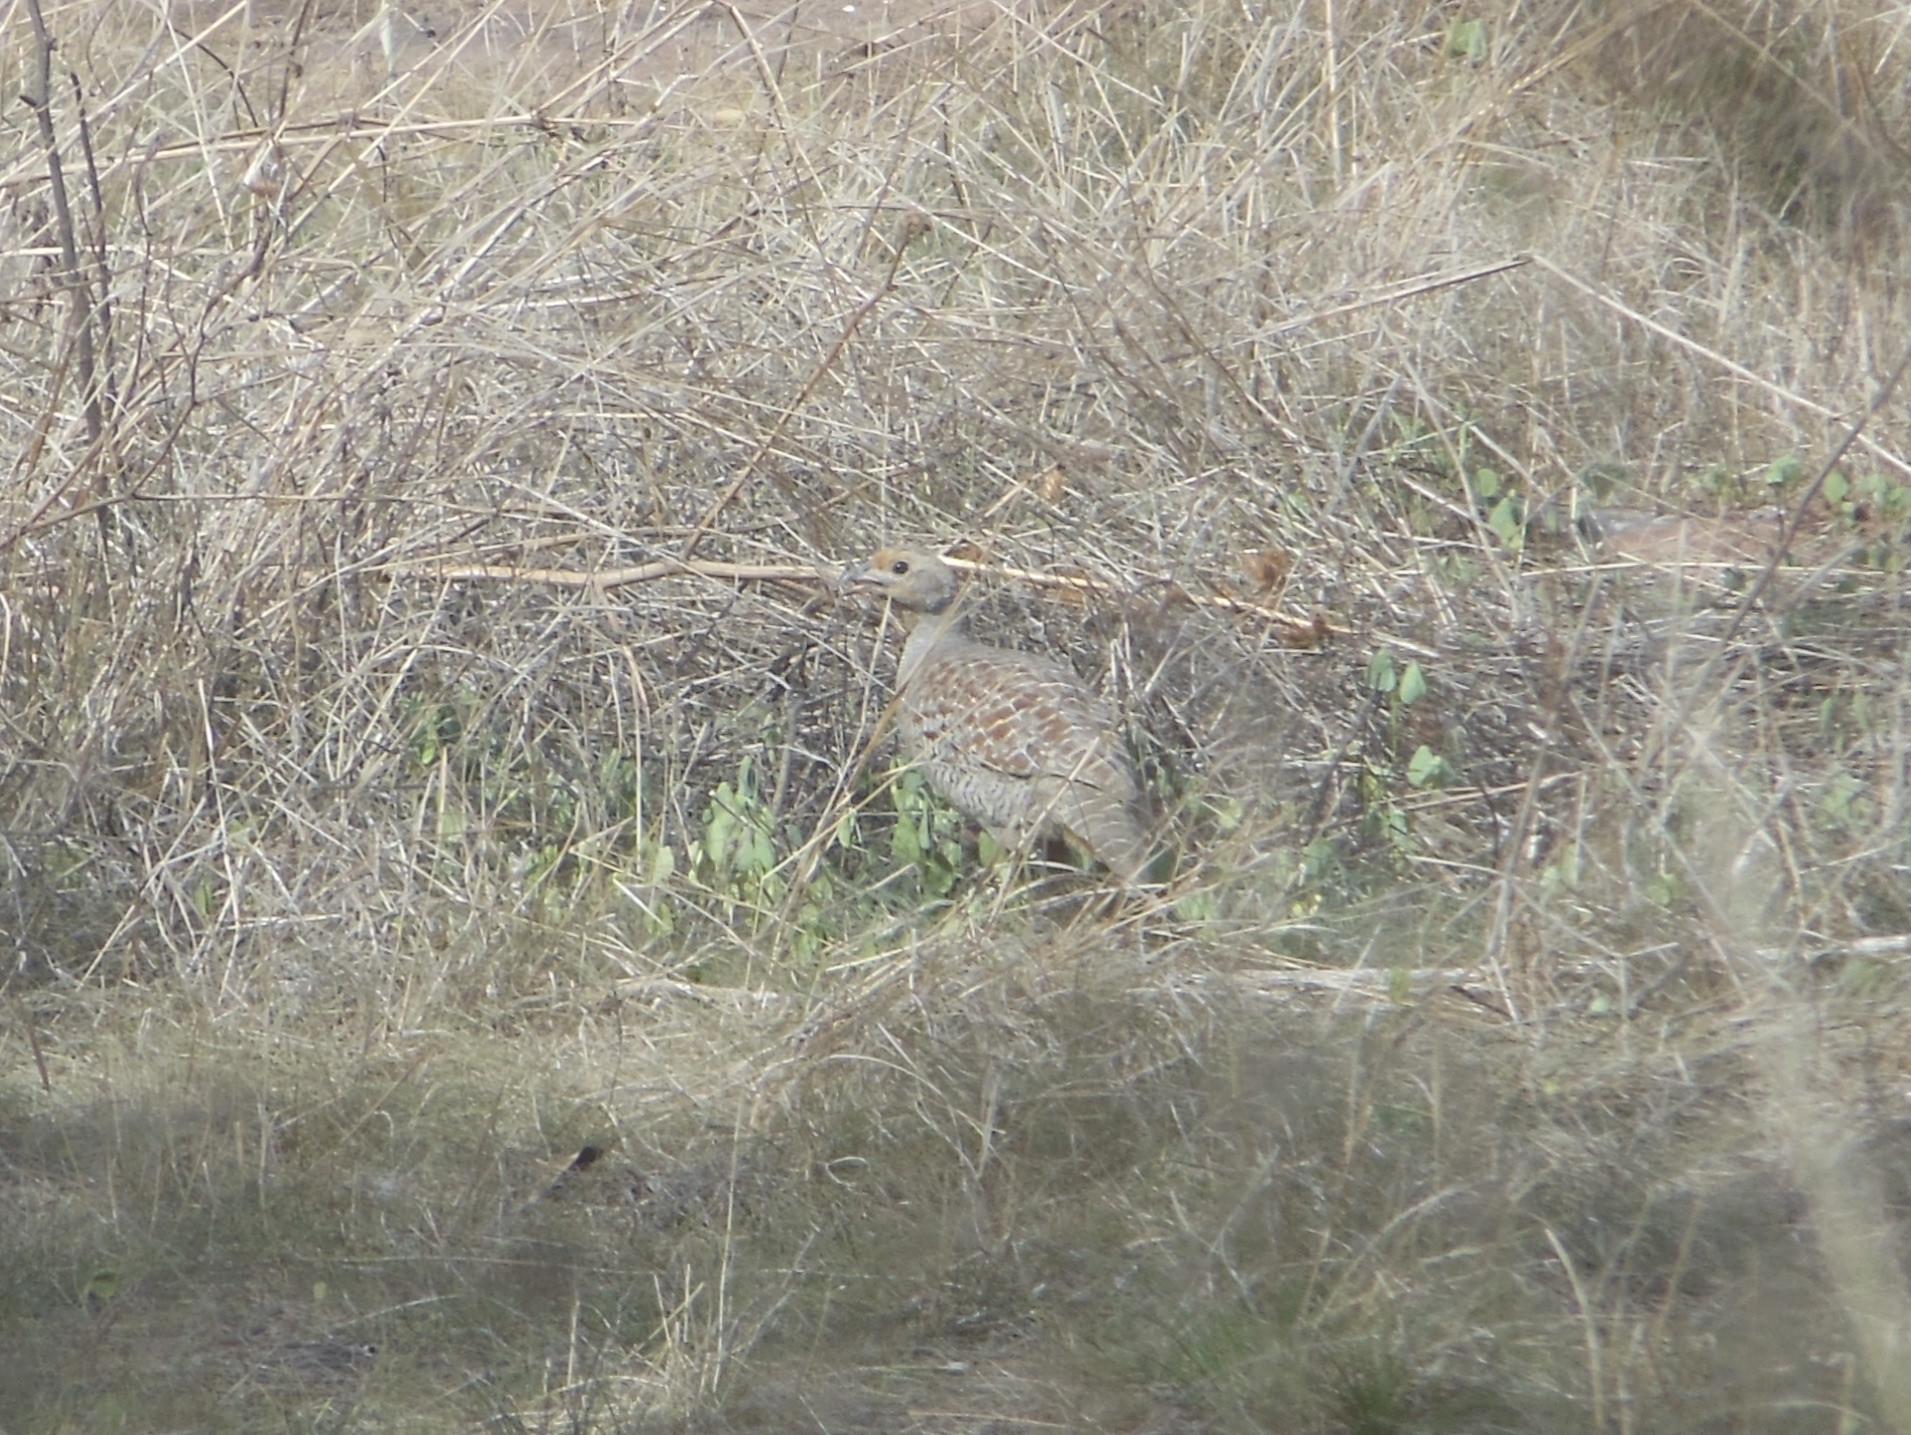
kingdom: Animalia
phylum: Chordata
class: Aves
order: Galliformes
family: Phasianidae
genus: Ortygornis
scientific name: Ortygornis pondicerianus
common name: Grey francolin
